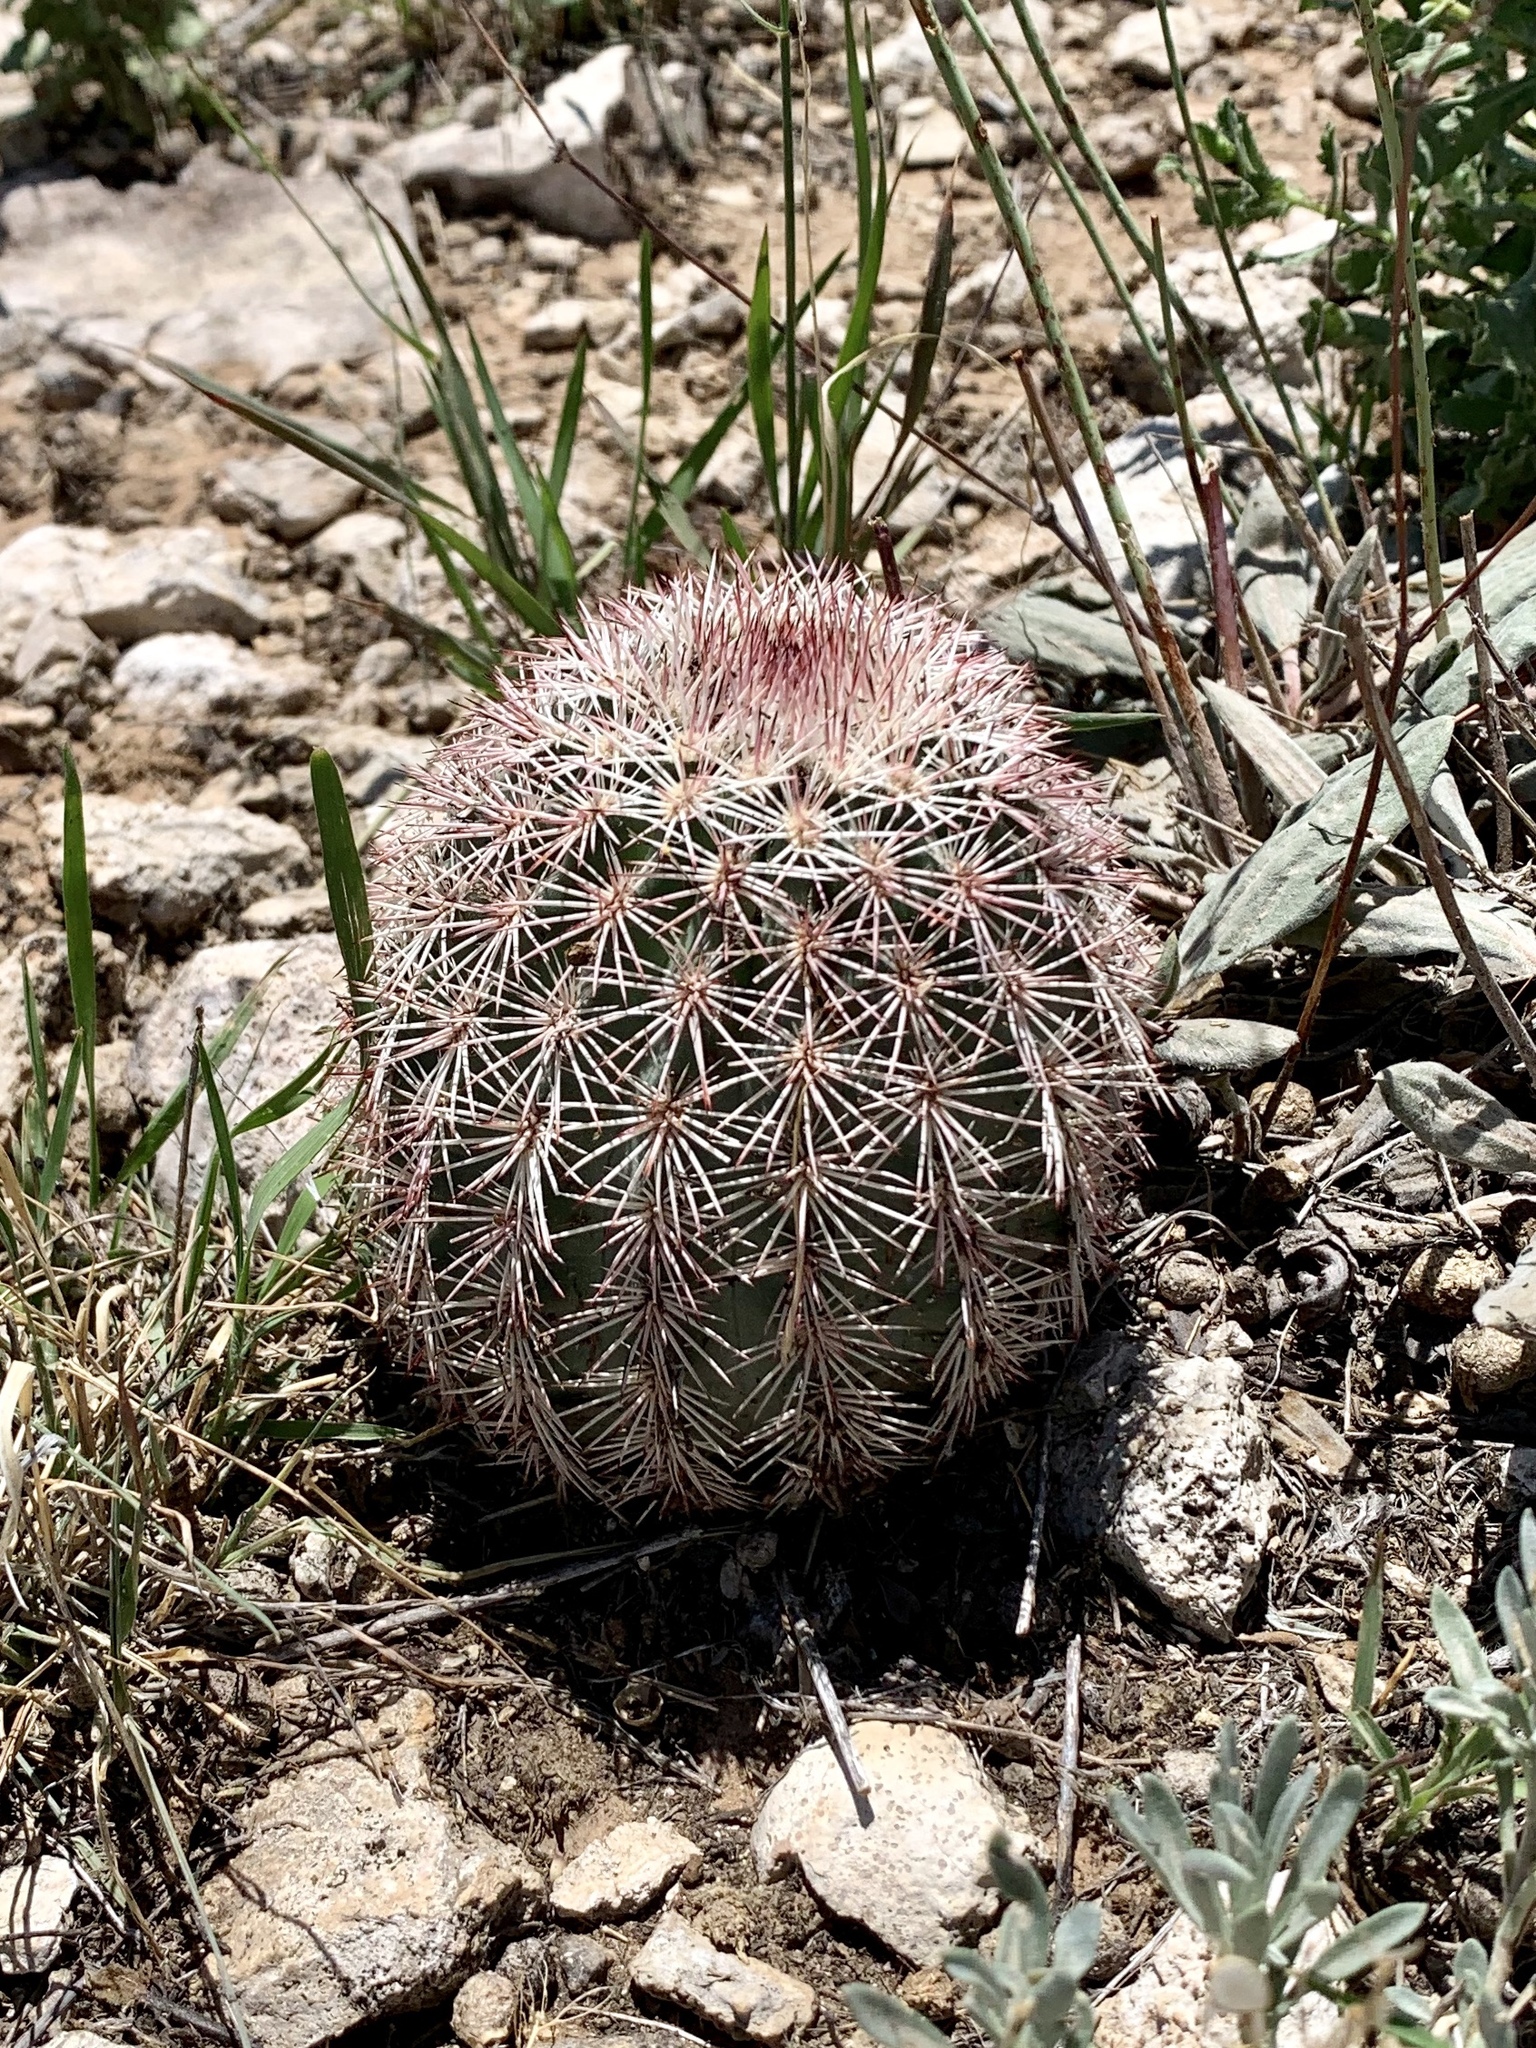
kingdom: Plantae
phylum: Tracheophyta
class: Magnoliopsida
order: Caryophyllales
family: Cactaceae
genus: Echinocereus
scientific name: Echinocereus dasyacanthus
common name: Spiny hedgehog cactus
